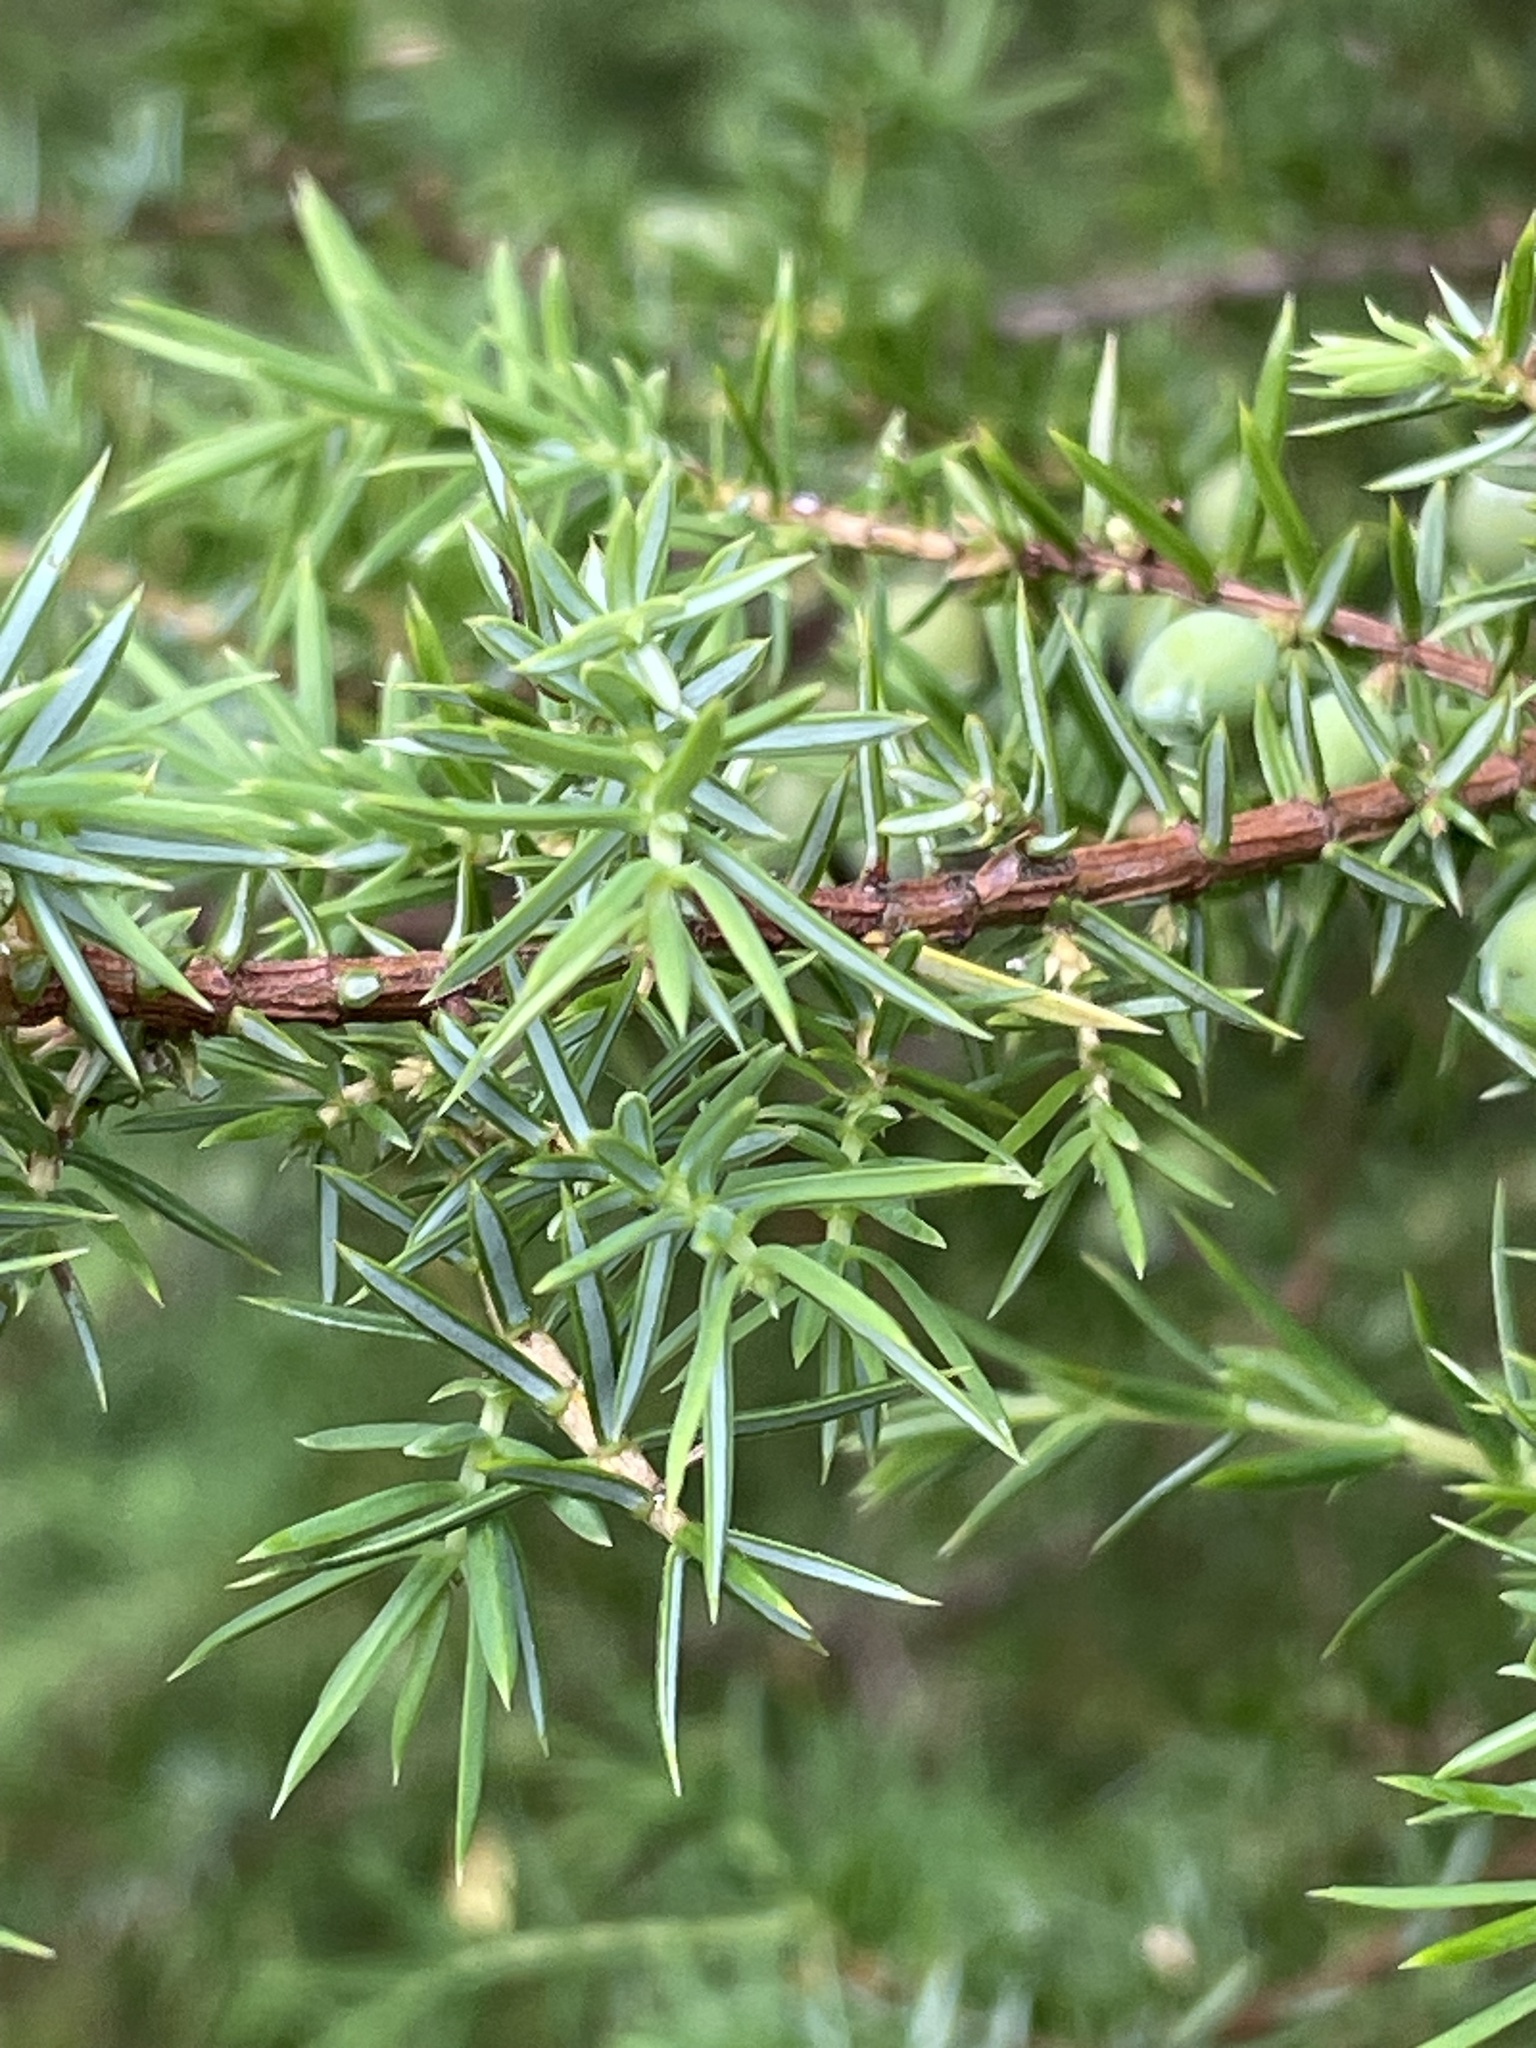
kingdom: Plantae
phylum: Tracheophyta
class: Pinopsida
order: Pinales
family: Cupressaceae
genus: Juniperus
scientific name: Juniperus communis
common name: Common juniper
